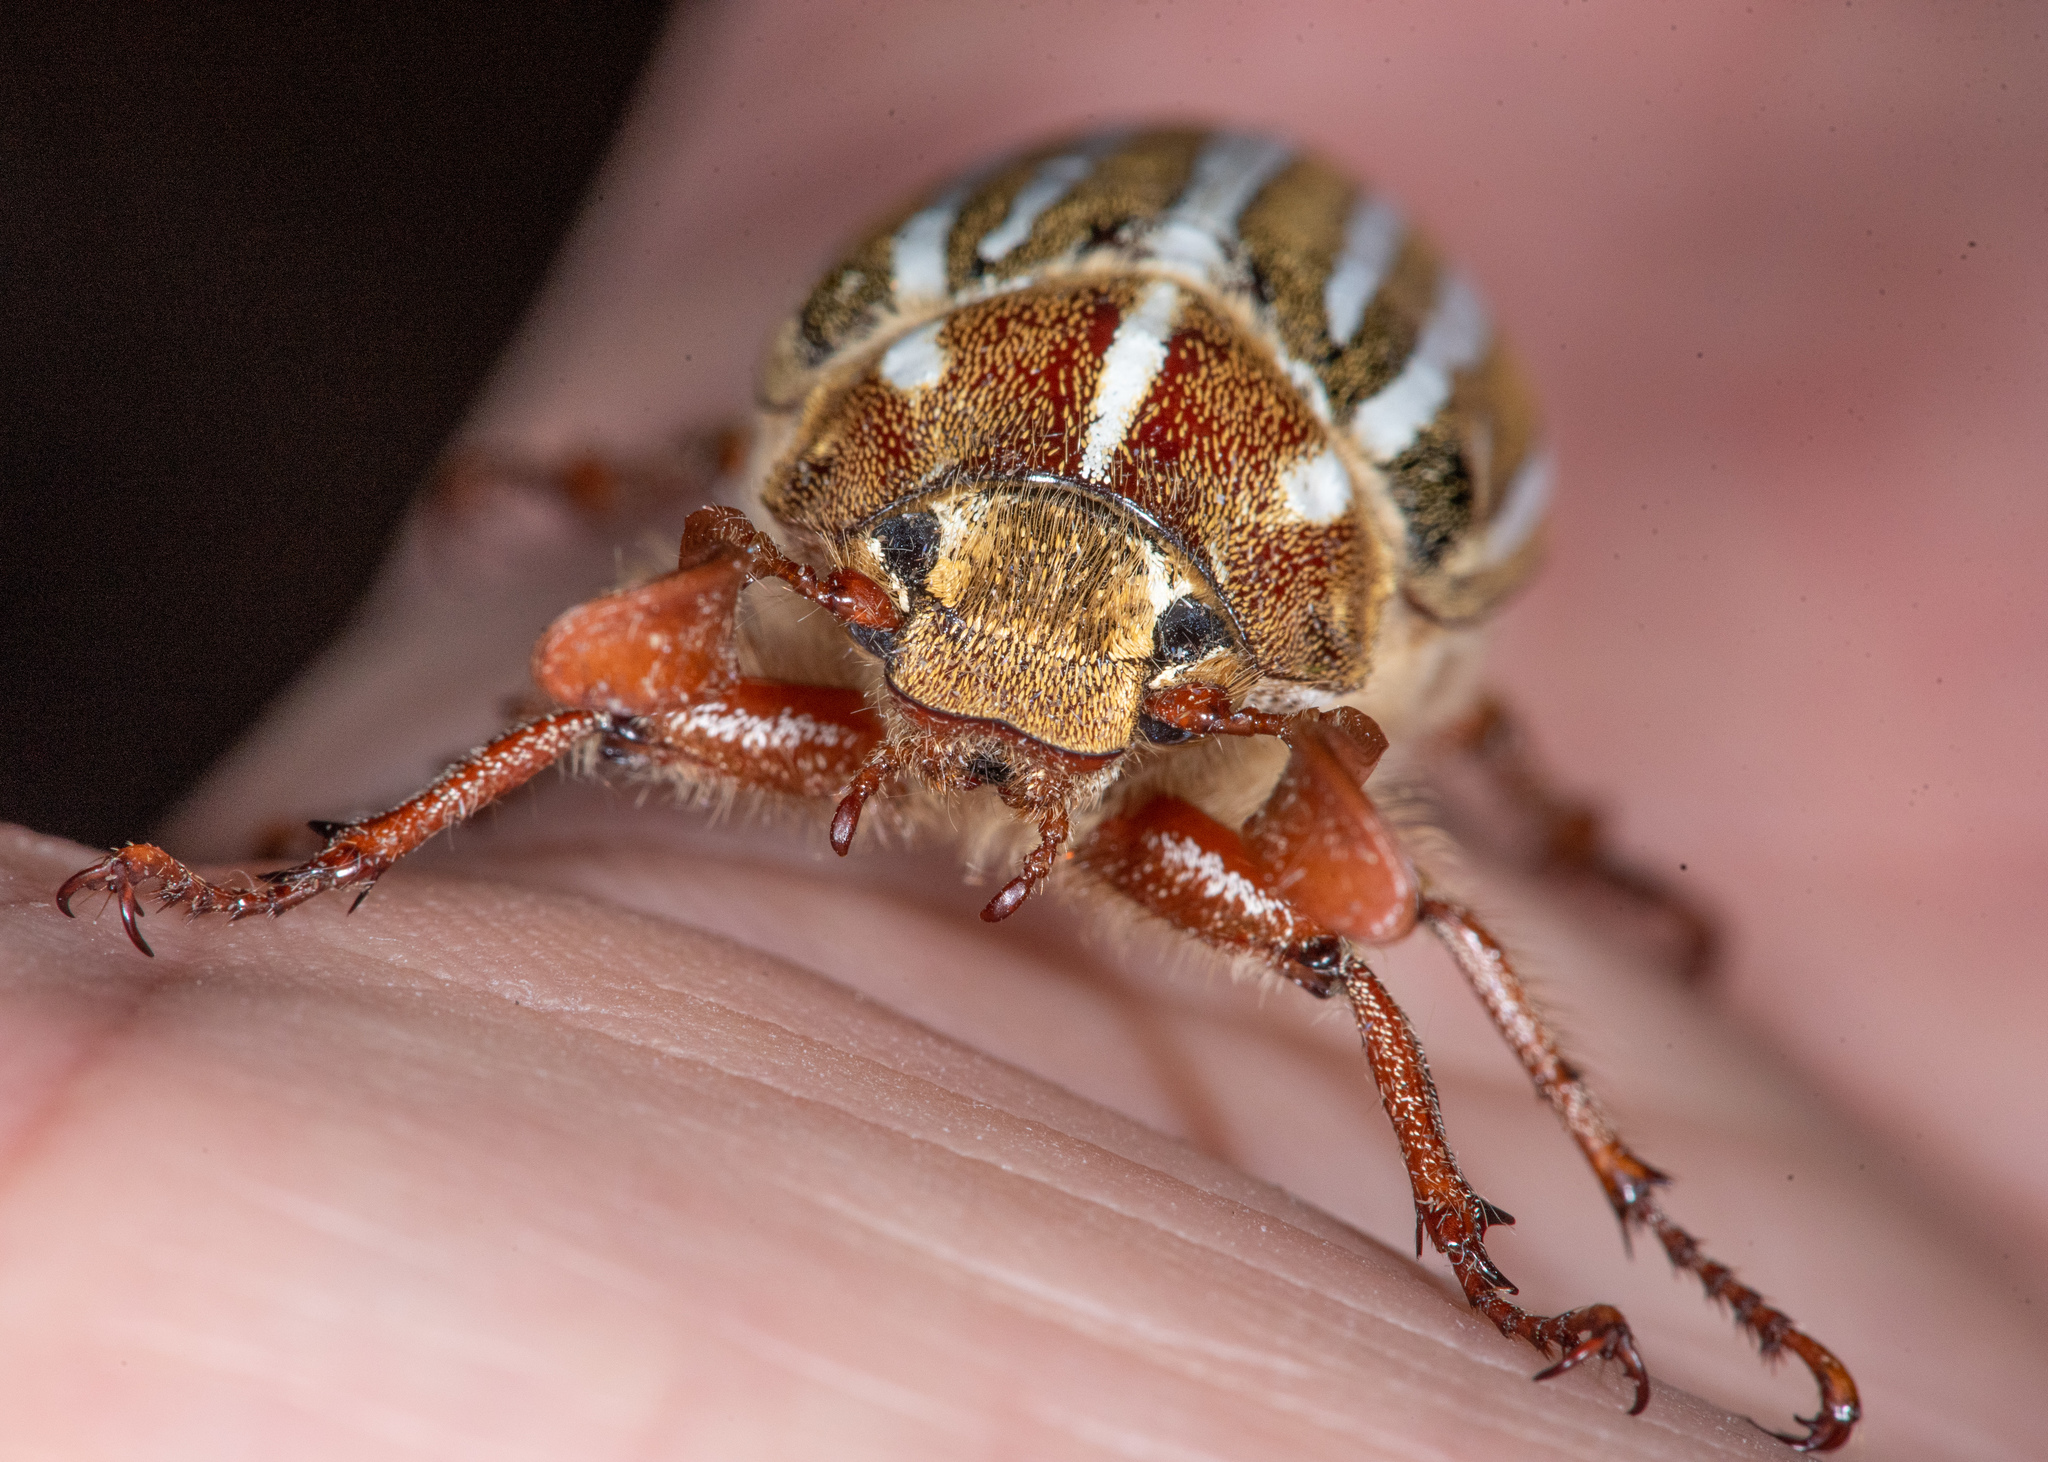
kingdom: Animalia
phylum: Arthropoda
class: Insecta
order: Coleoptera
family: Scarabaeidae
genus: Polyphylla
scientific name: Polyphylla decemlineata
